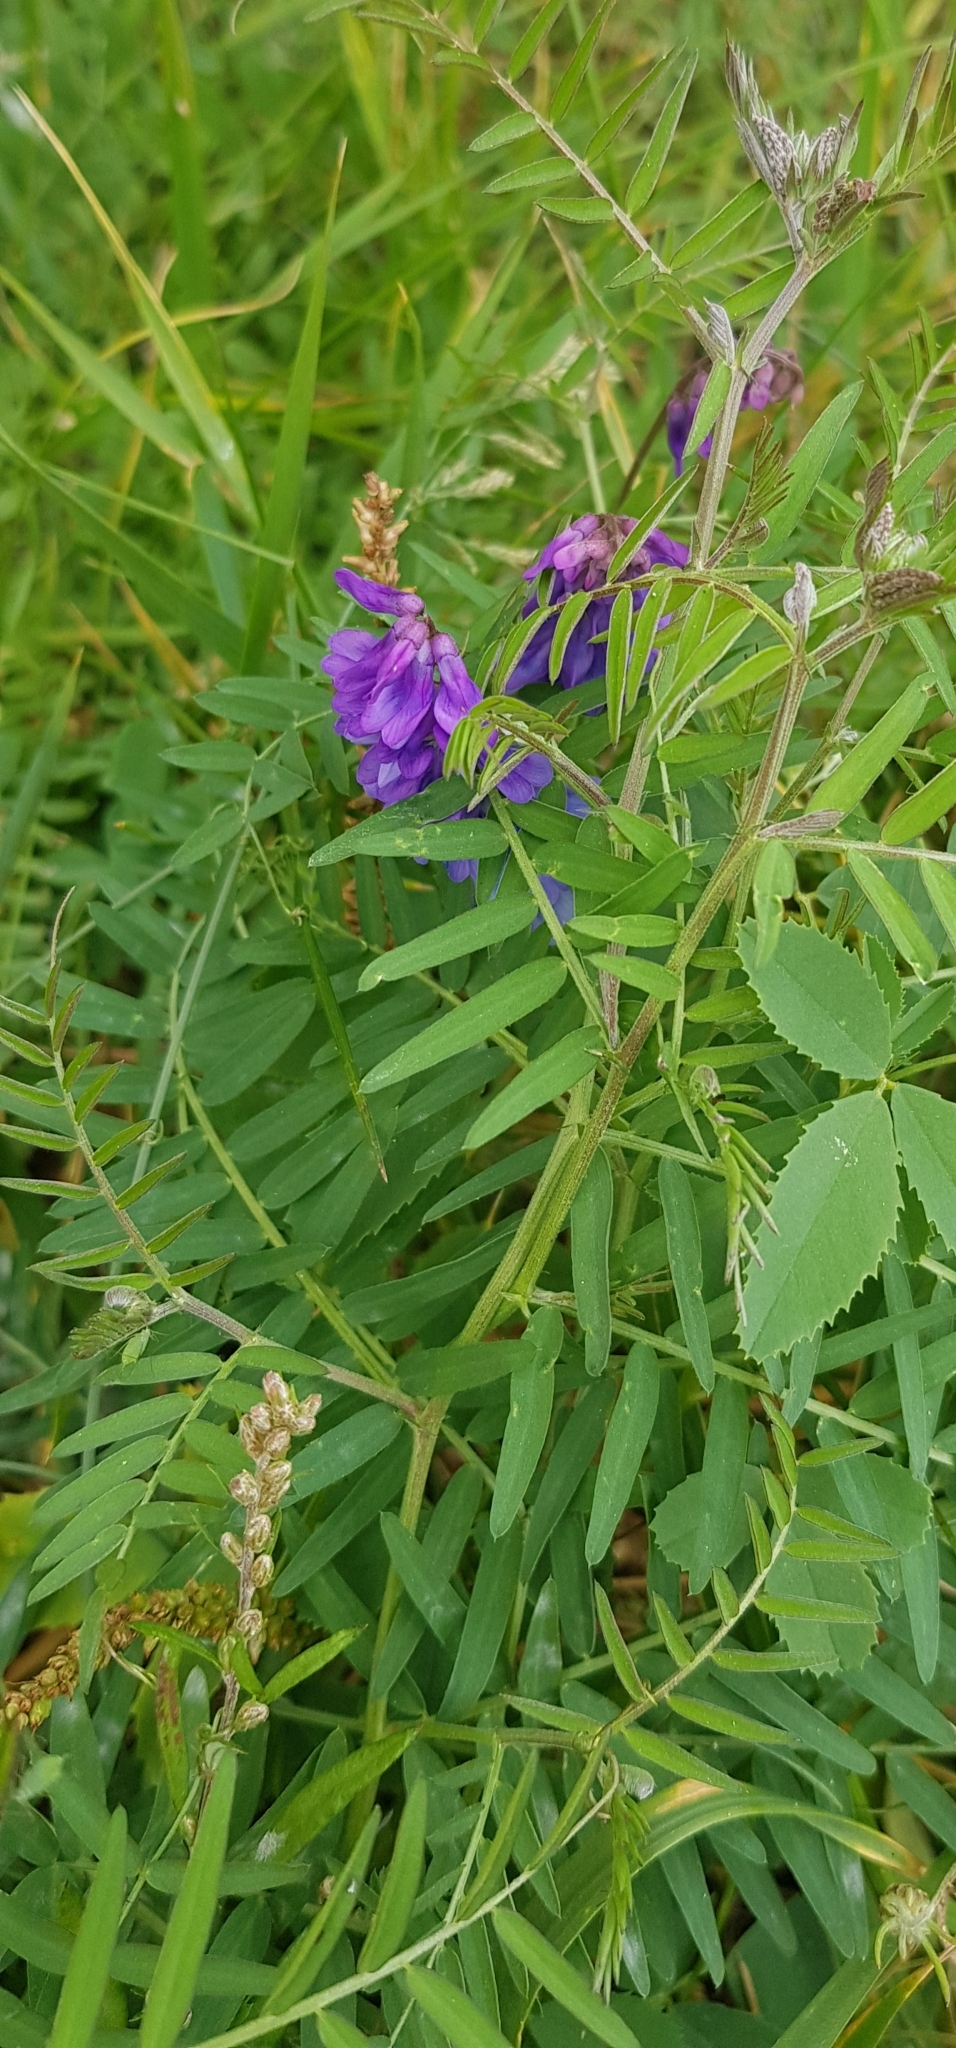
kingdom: Plantae
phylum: Tracheophyta
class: Magnoliopsida
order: Fabales
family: Fabaceae
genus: Vicia
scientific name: Vicia cracca
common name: Bird vetch
